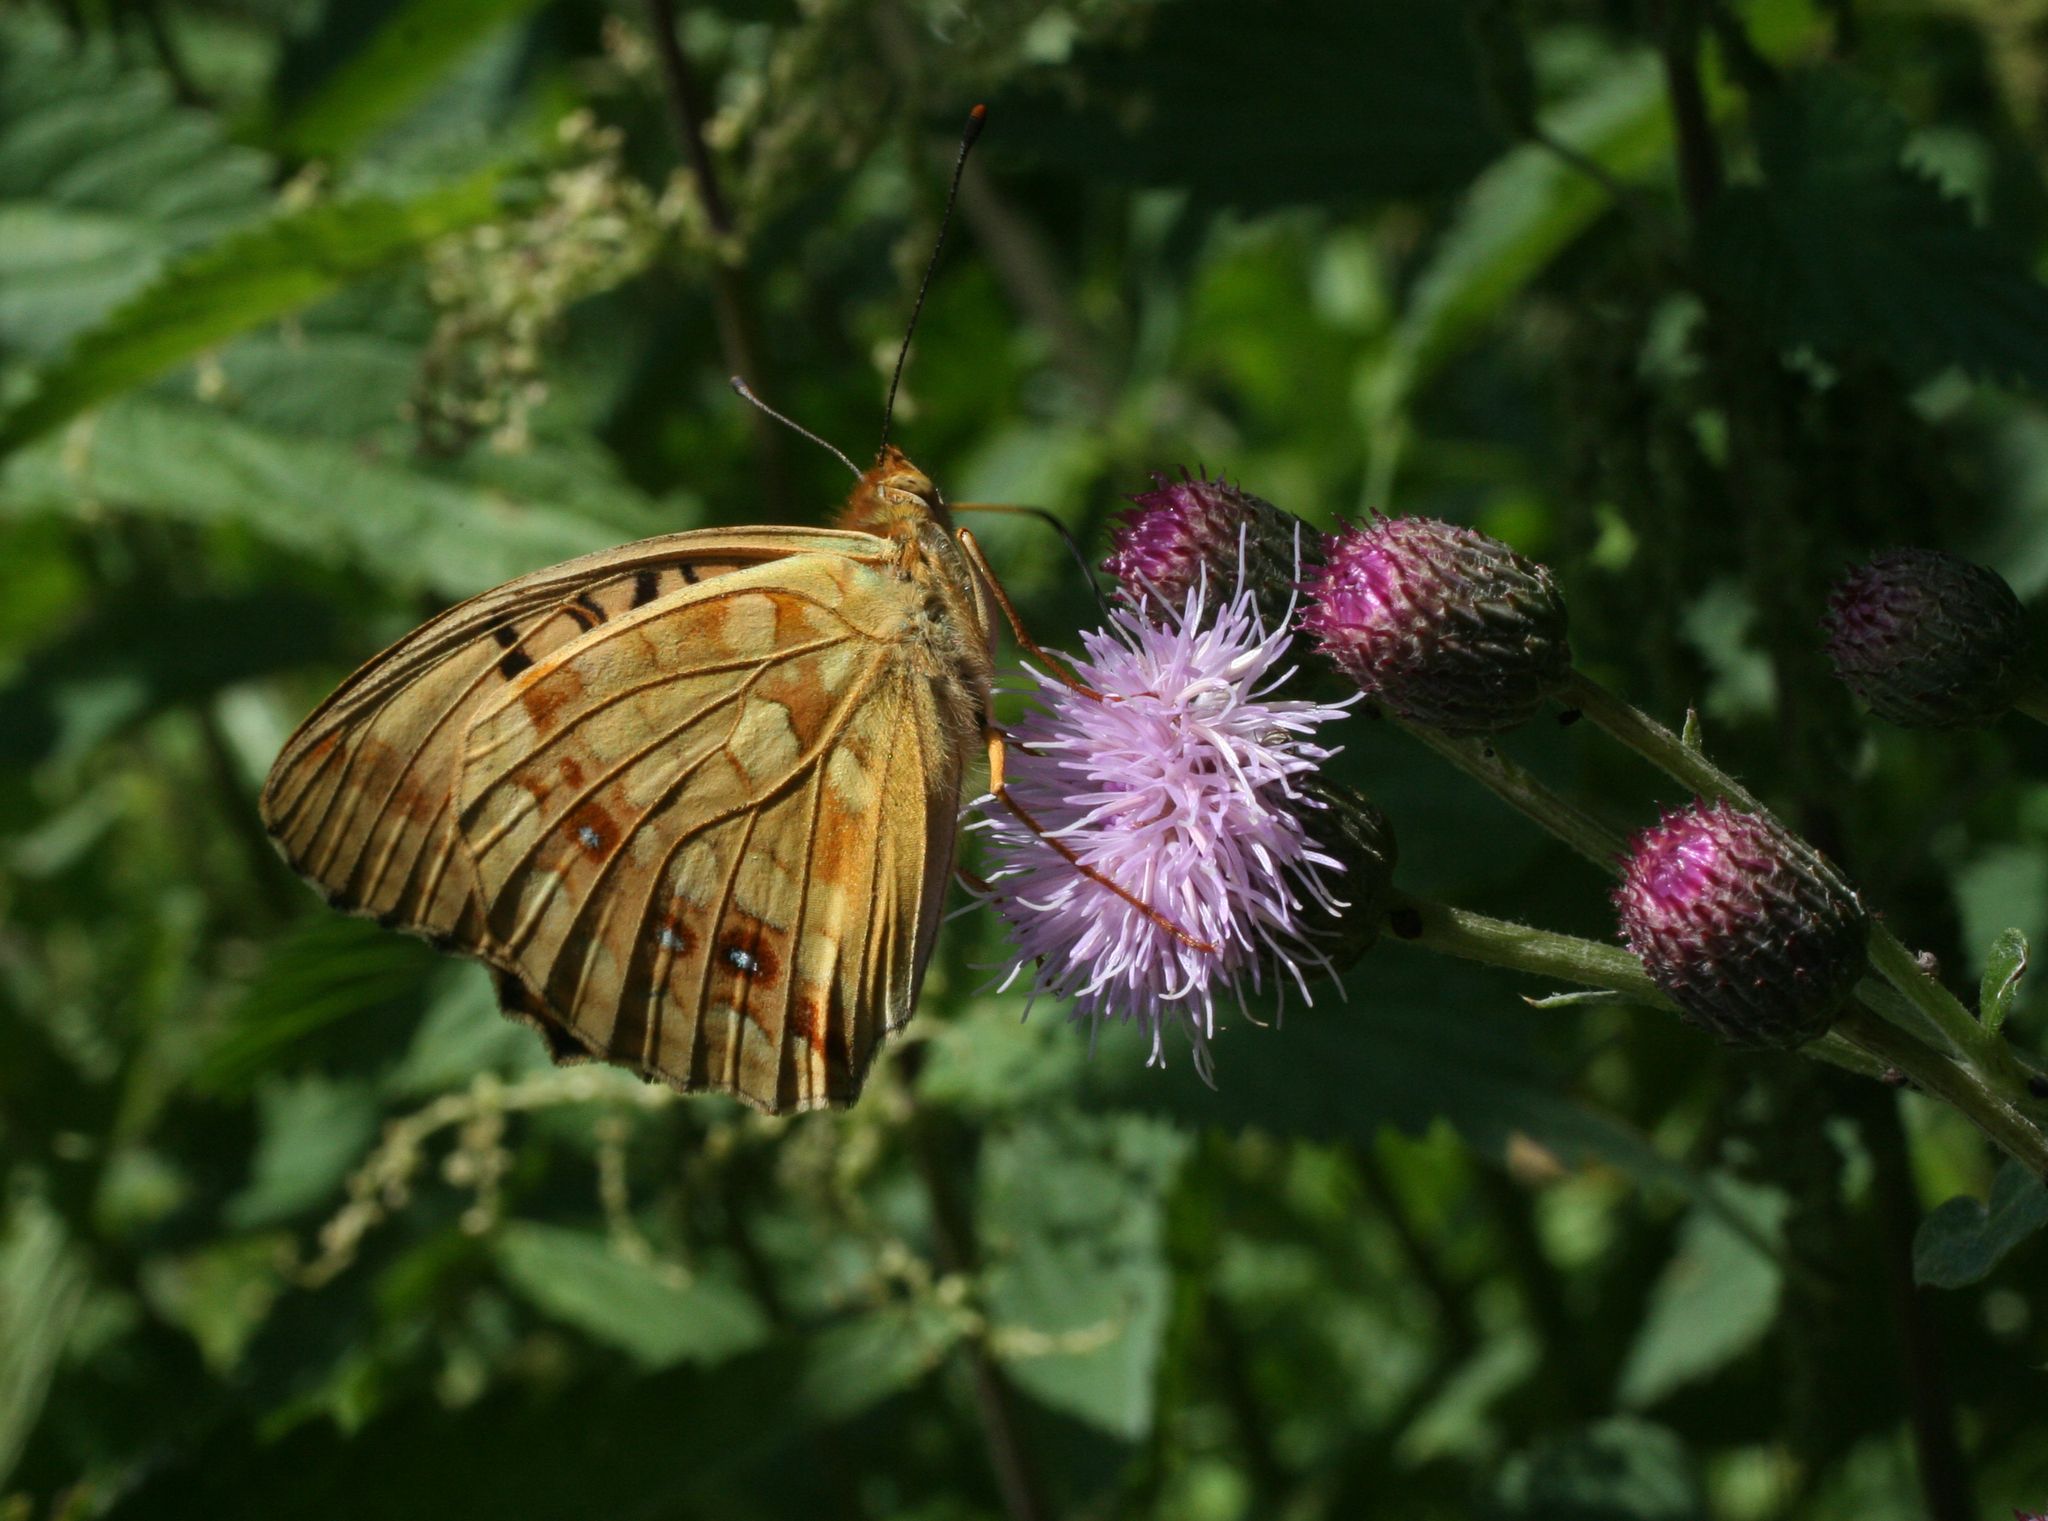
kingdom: Plantae
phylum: Tracheophyta
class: Magnoliopsida
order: Asterales
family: Asteraceae
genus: Cirsium
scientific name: Cirsium arvense
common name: Creeping thistle
